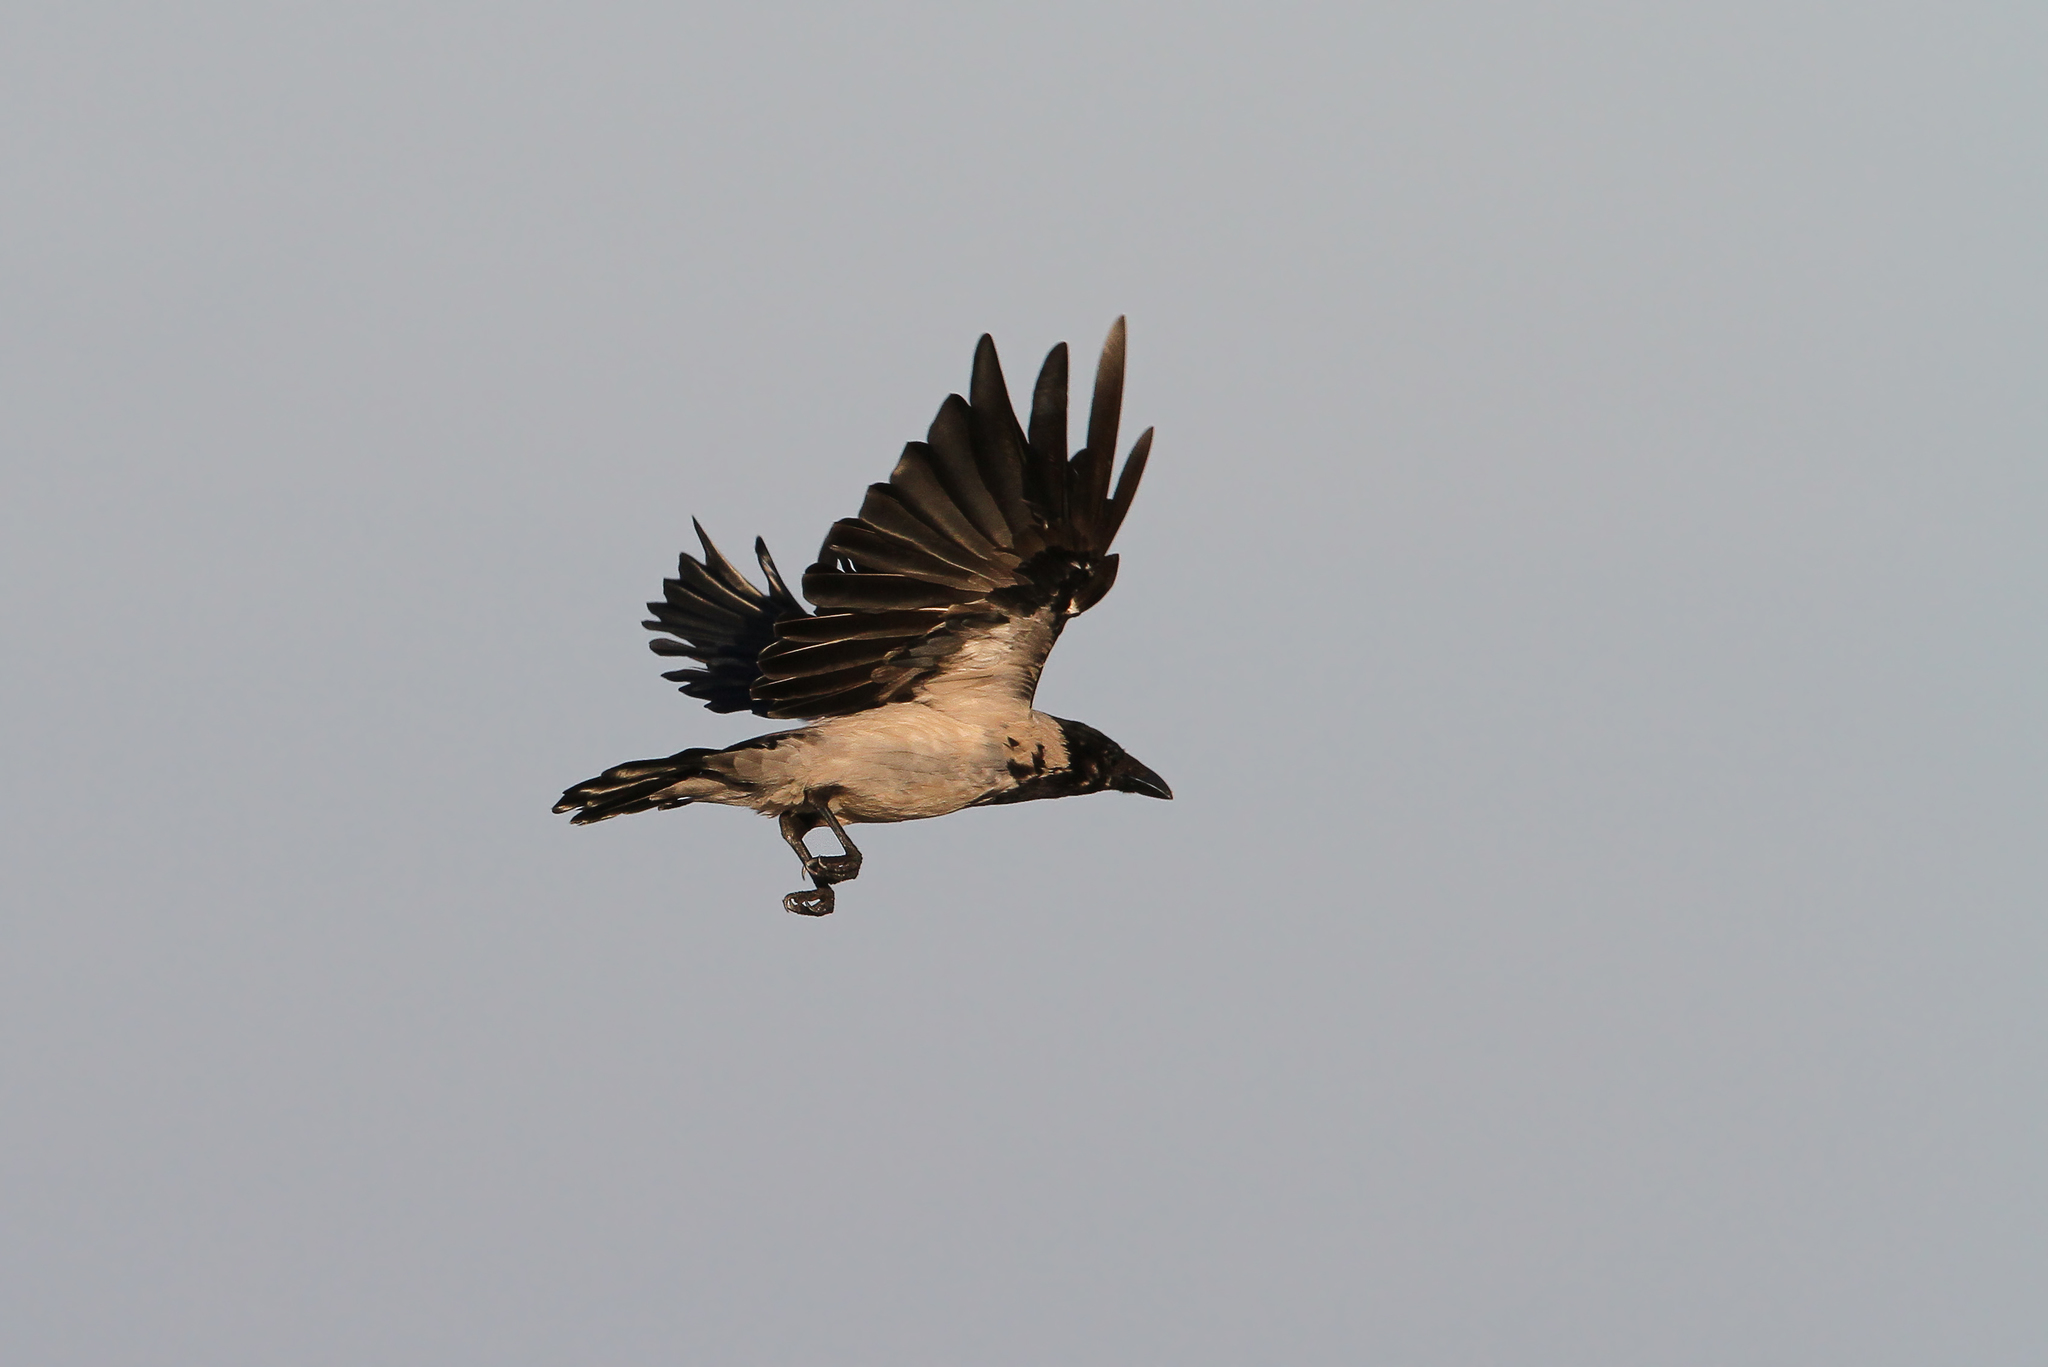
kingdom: Animalia
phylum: Chordata
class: Aves
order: Passeriformes
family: Corvidae
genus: Corvus
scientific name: Corvus cornix
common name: Hooded crow
